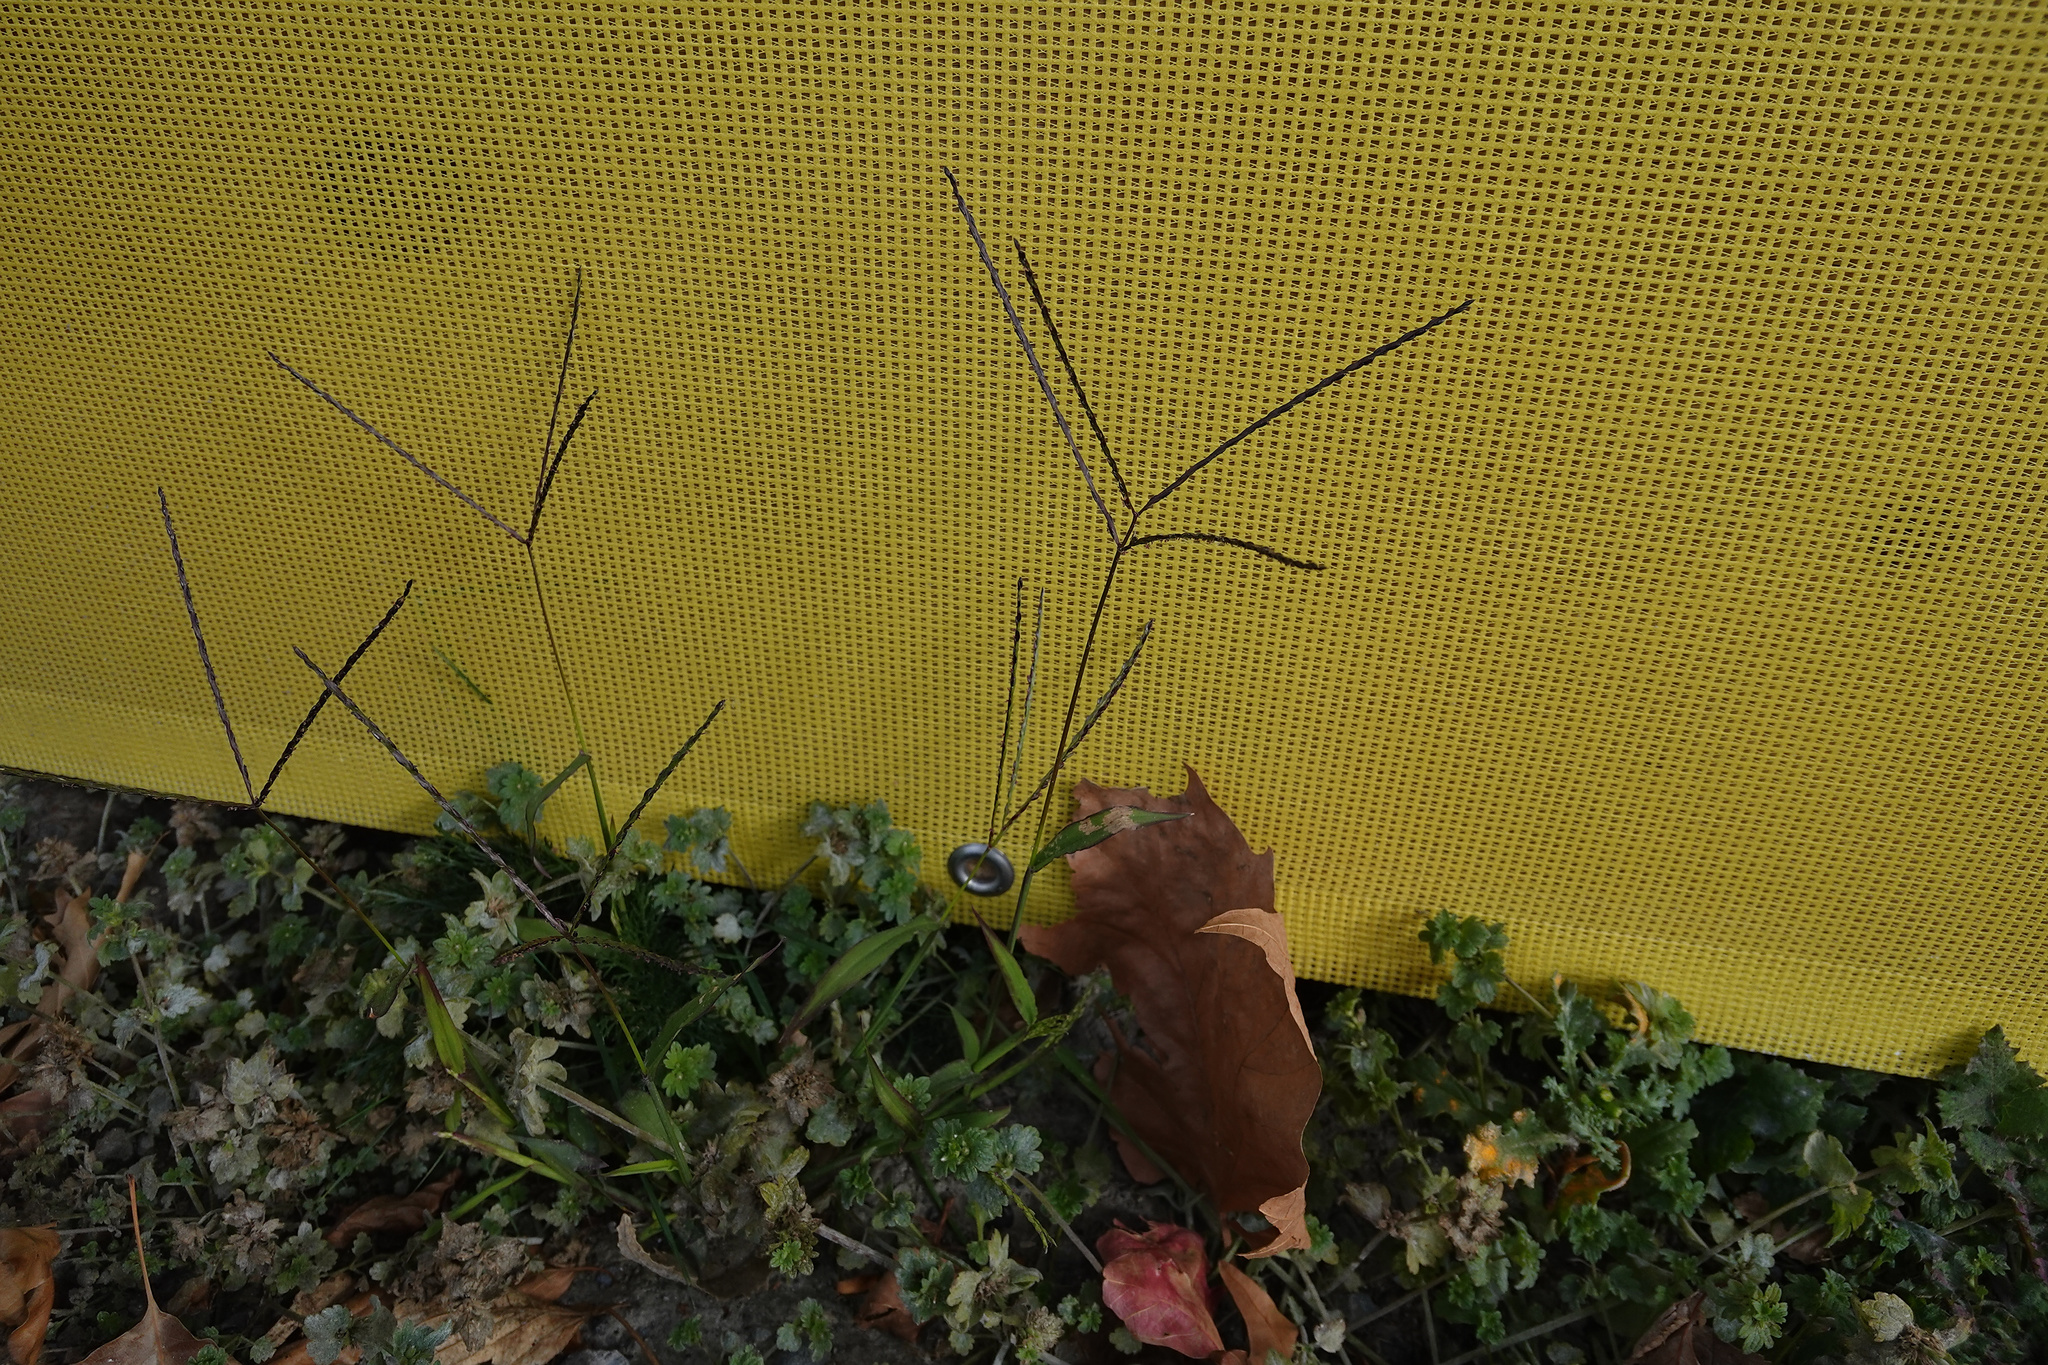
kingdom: Plantae
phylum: Tracheophyta
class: Liliopsida
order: Poales
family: Poaceae
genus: Digitaria
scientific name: Digitaria sanguinalis
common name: Hairy crabgrass
